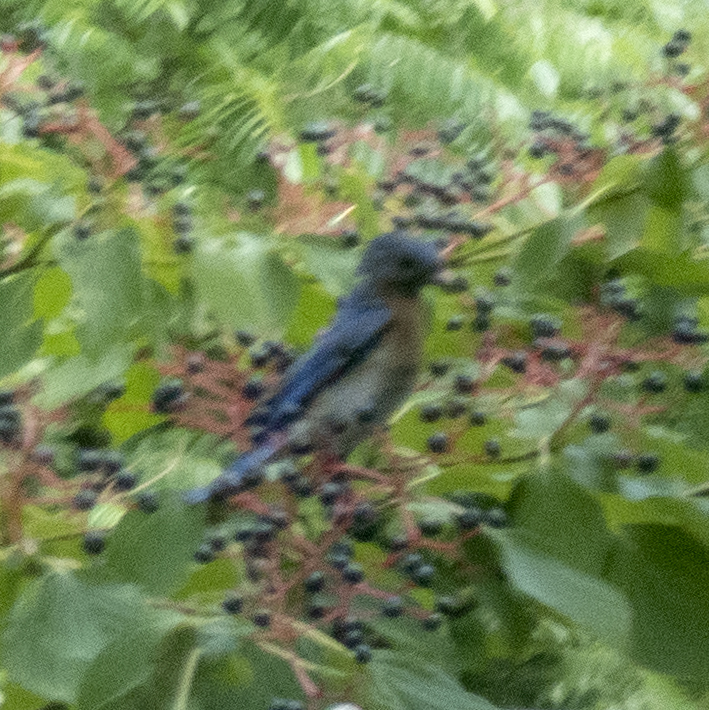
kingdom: Animalia
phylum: Chordata
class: Aves
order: Passeriformes
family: Turdidae
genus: Sialia
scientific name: Sialia sialis
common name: Eastern bluebird
